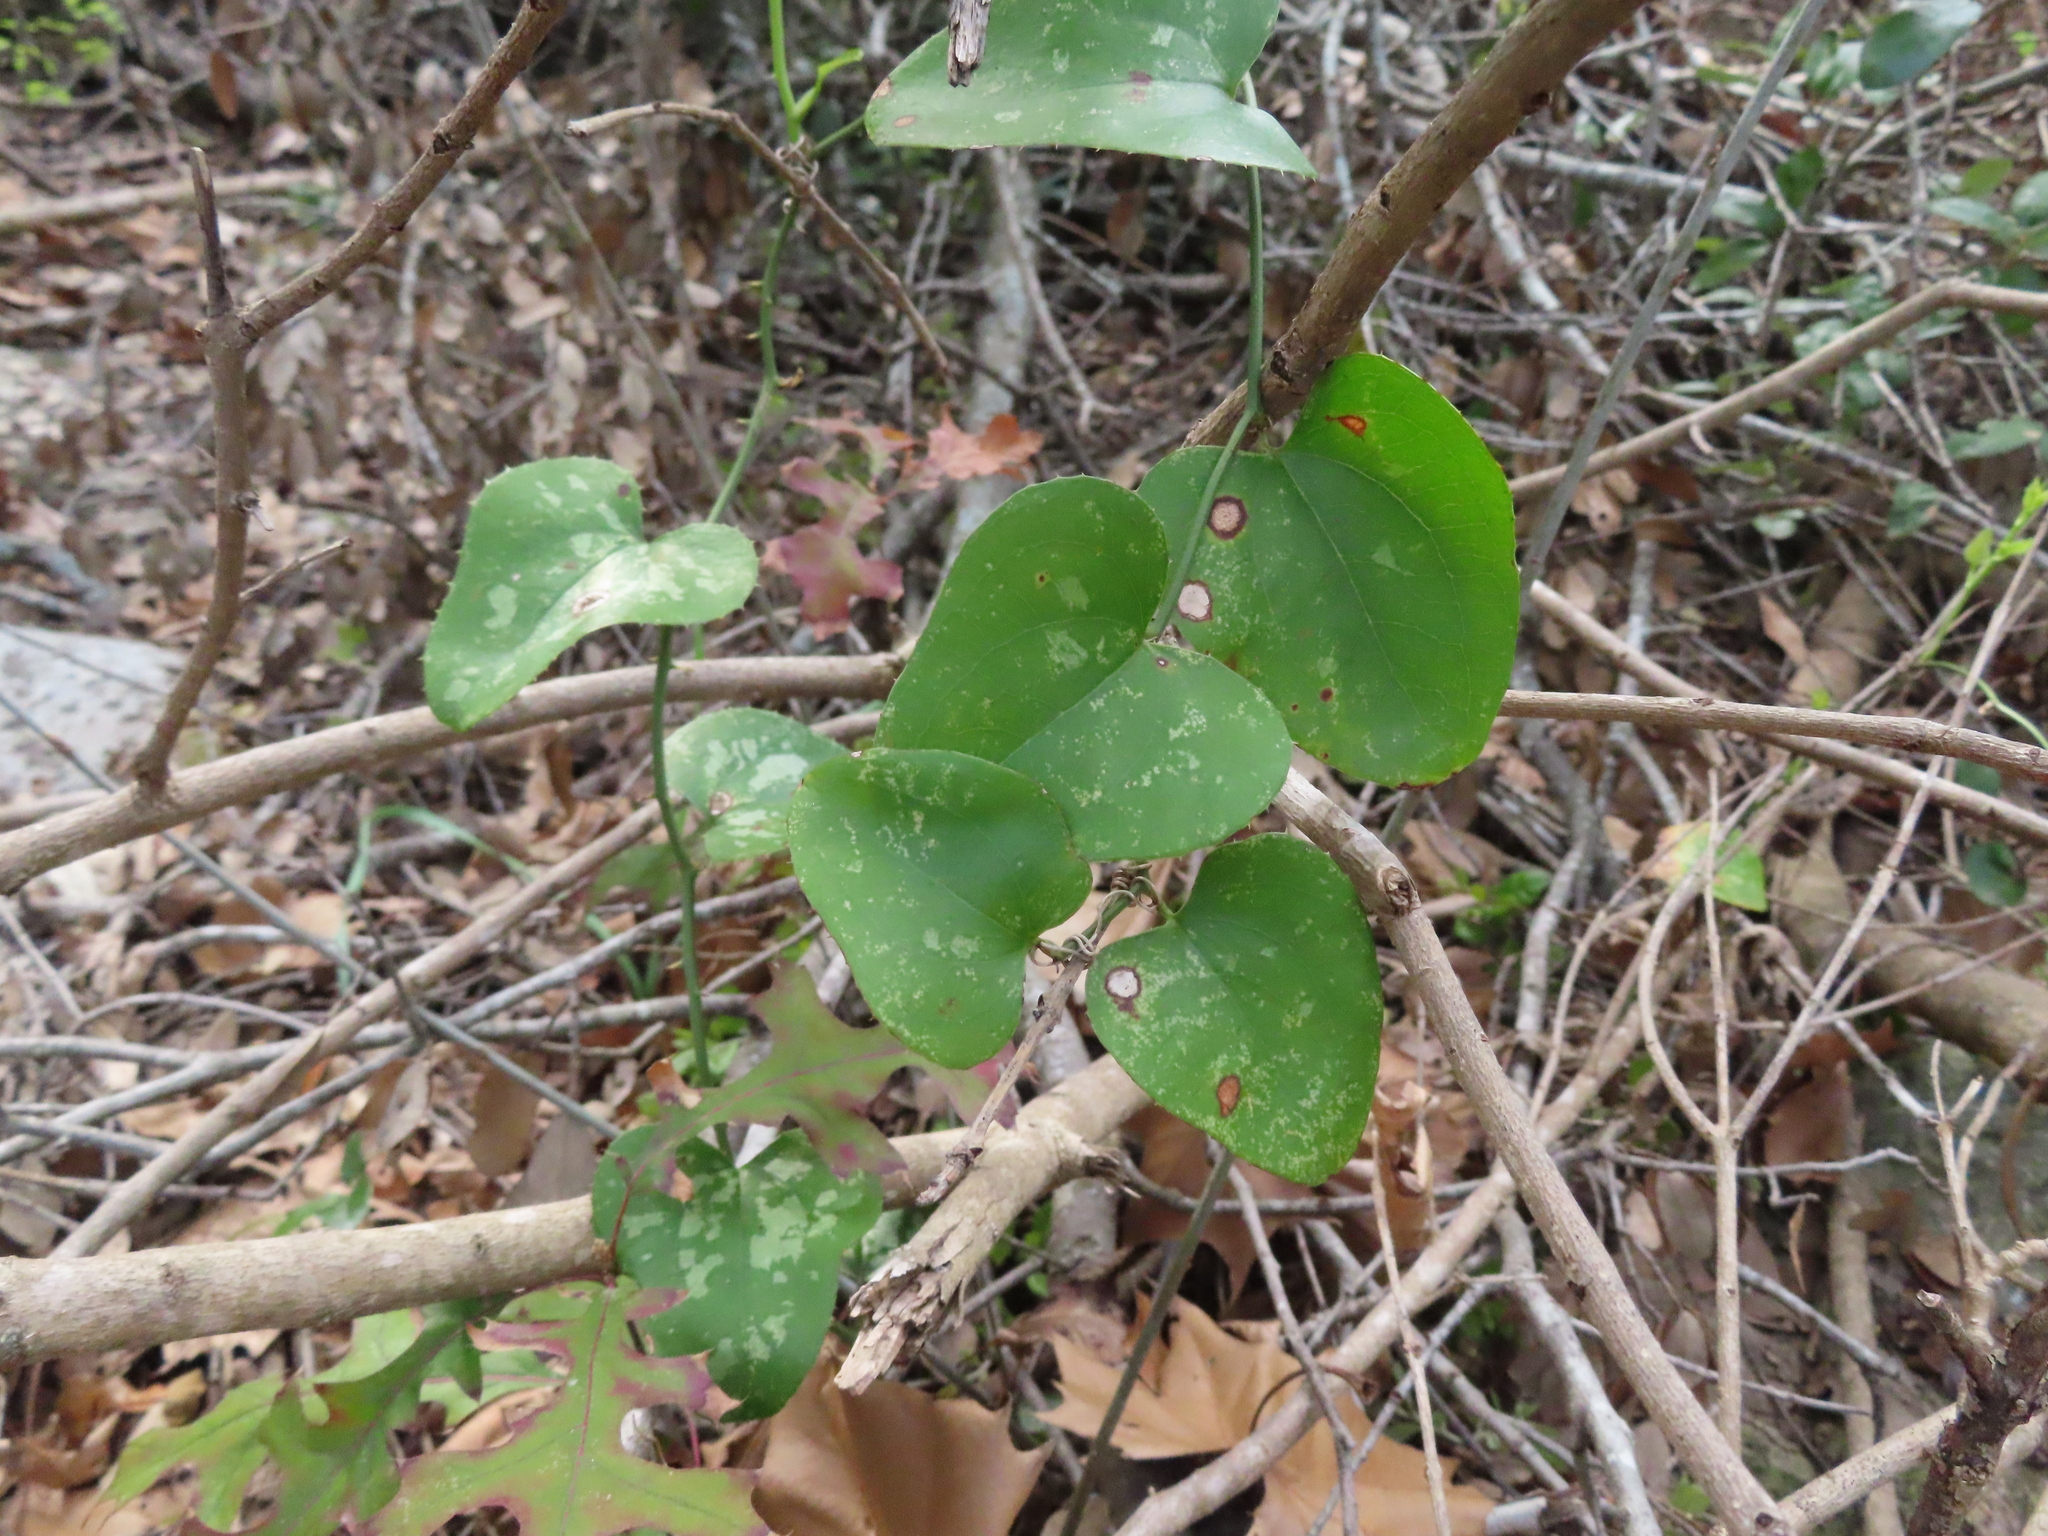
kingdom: Plantae
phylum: Tracheophyta
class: Liliopsida
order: Liliales
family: Smilacaceae
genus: Smilax
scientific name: Smilax bona-nox
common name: Catbrier
